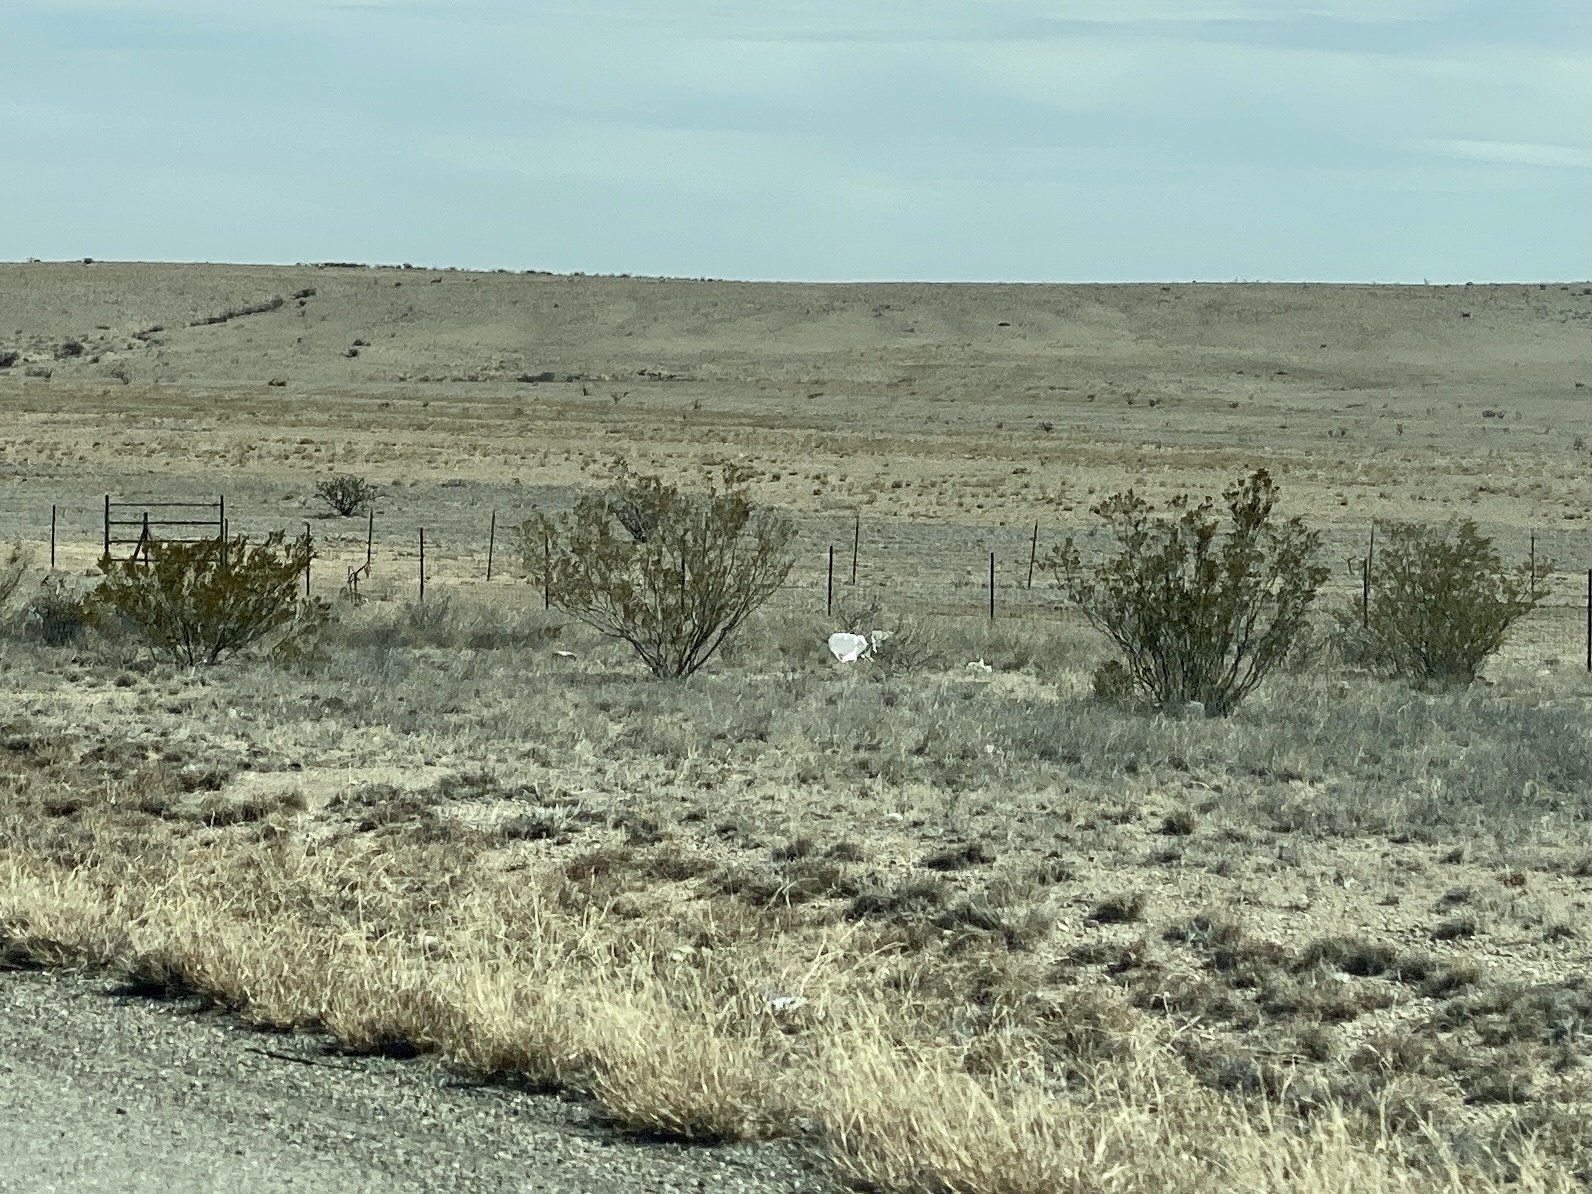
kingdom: Plantae
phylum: Tracheophyta
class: Magnoliopsida
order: Zygophyllales
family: Zygophyllaceae
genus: Larrea
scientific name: Larrea tridentata
